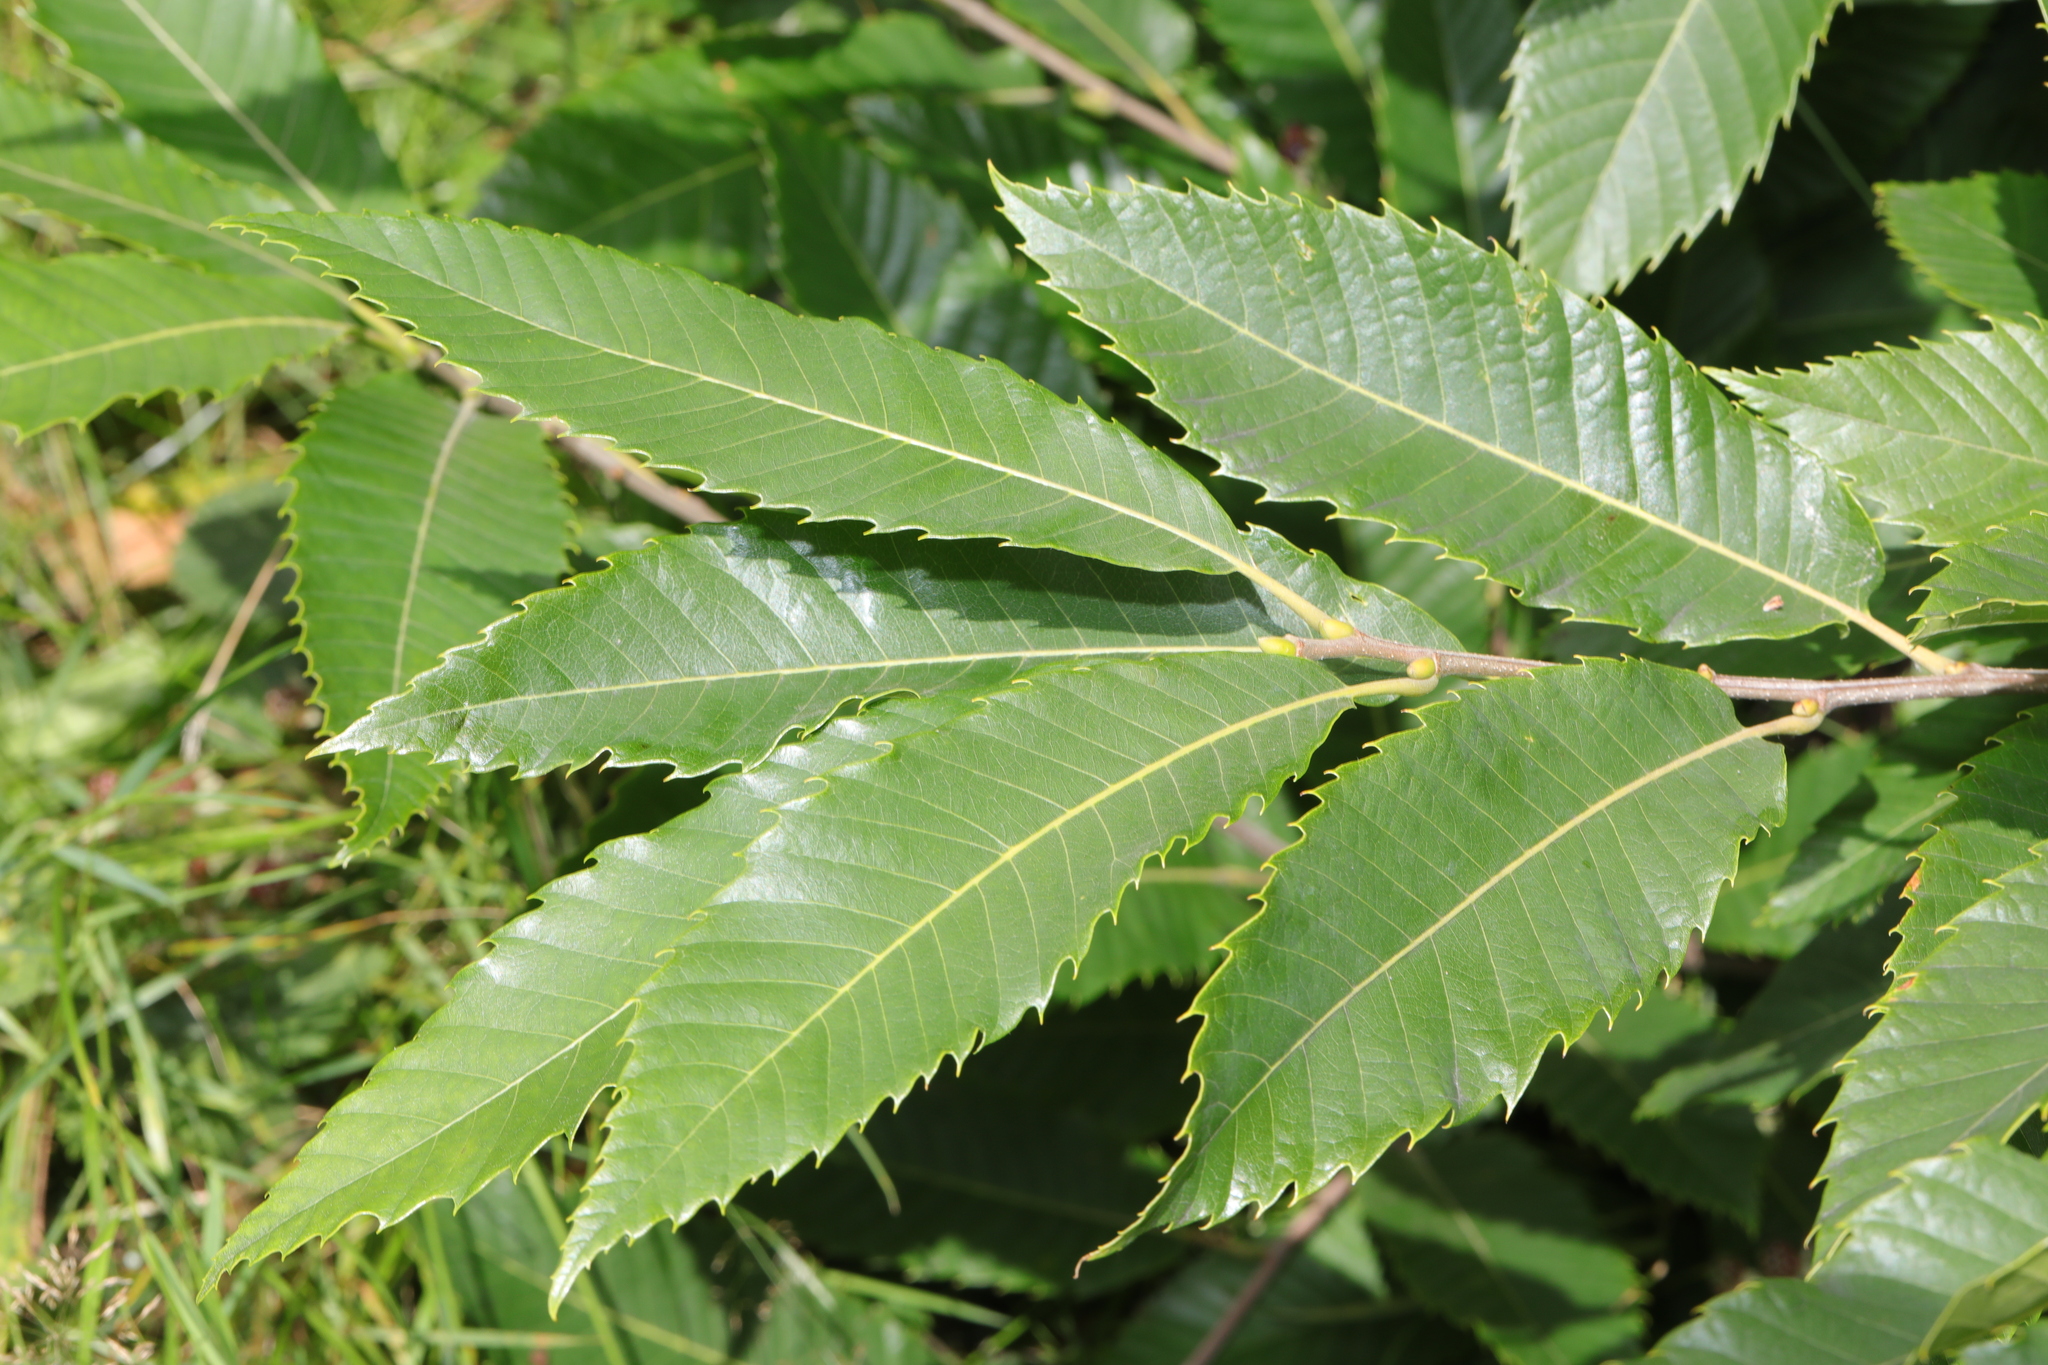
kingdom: Plantae
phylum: Tracheophyta
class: Magnoliopsida
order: Fagales
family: Fagaceae
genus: Castanea
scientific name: Castanea sativa
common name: Sweet chestnut
